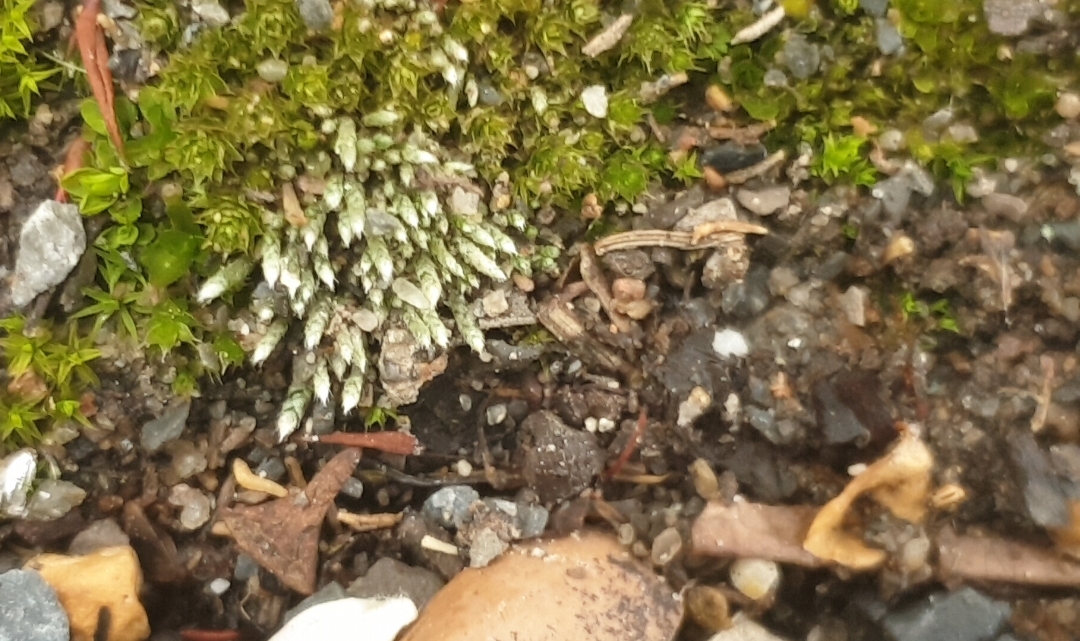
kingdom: Plantae
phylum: Bryophyta
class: Bryopsida
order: Bryales
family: Bryaceae
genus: Bryum
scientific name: Bryum argenteum
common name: Silver-moss
